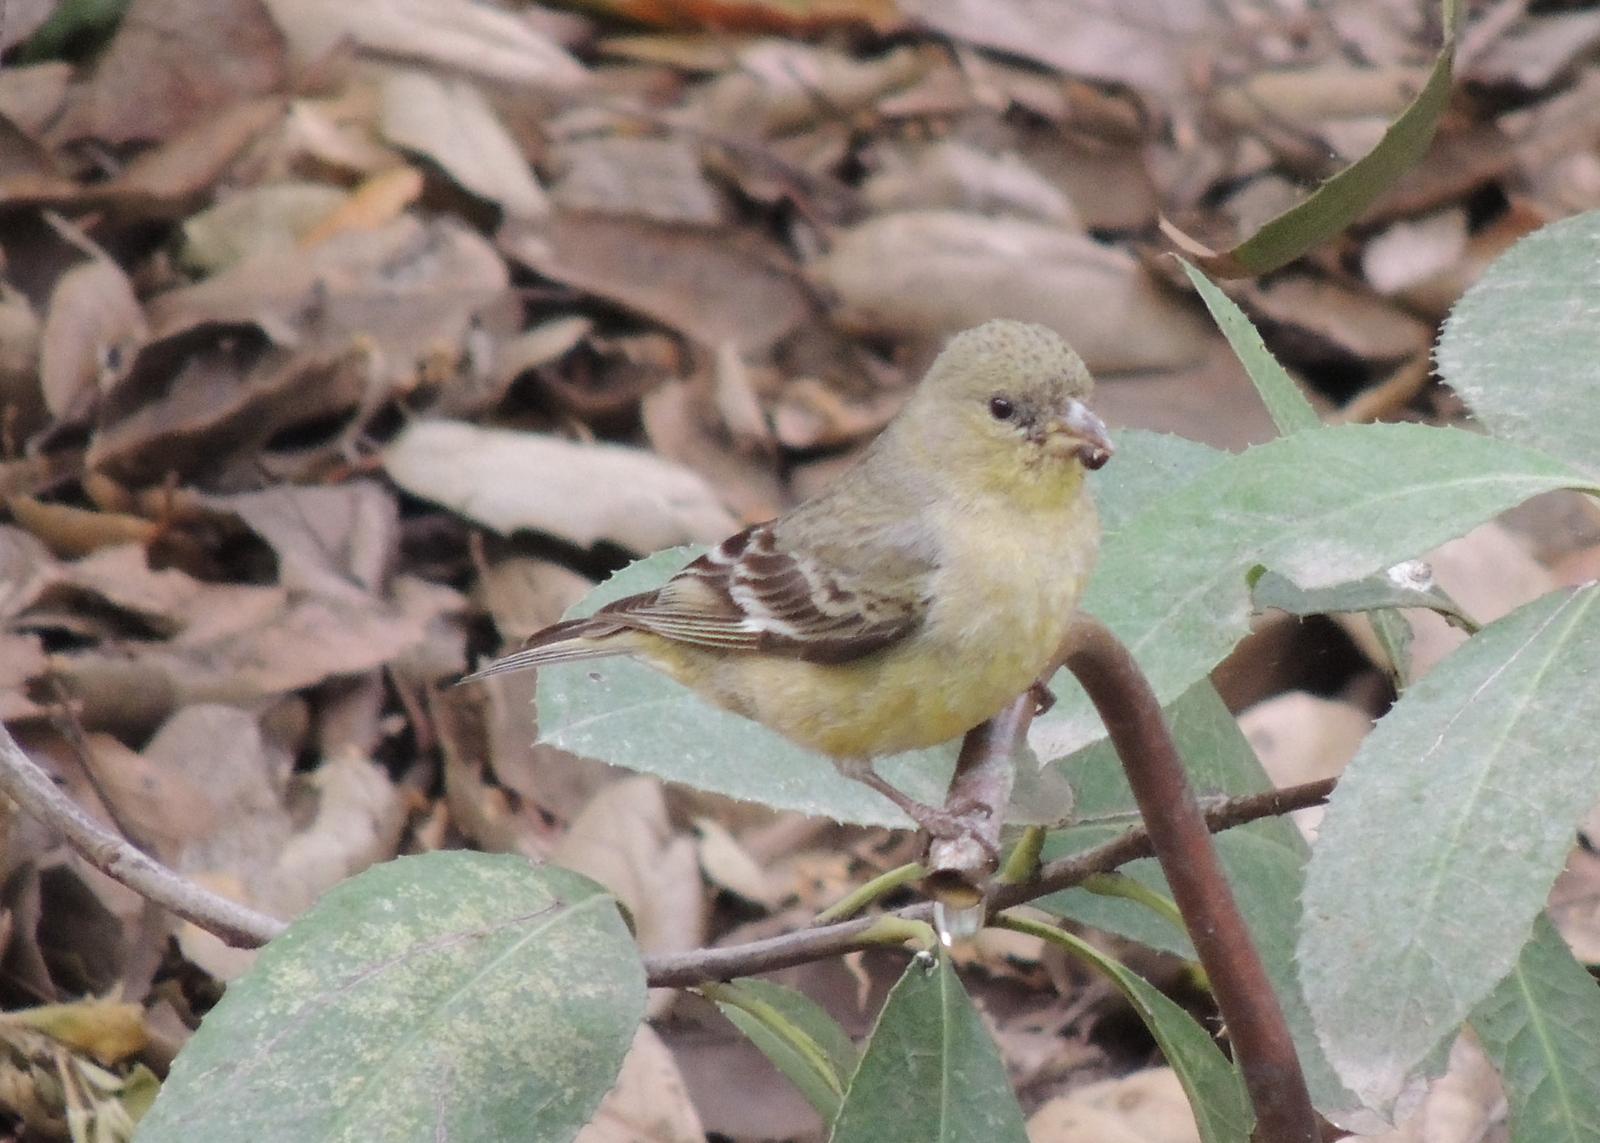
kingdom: Animalia
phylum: Chordata
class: Aves
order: Passeriformes
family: Fringillidae
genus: Spinus
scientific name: Spinus psaltria
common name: Lesser goldfinch
